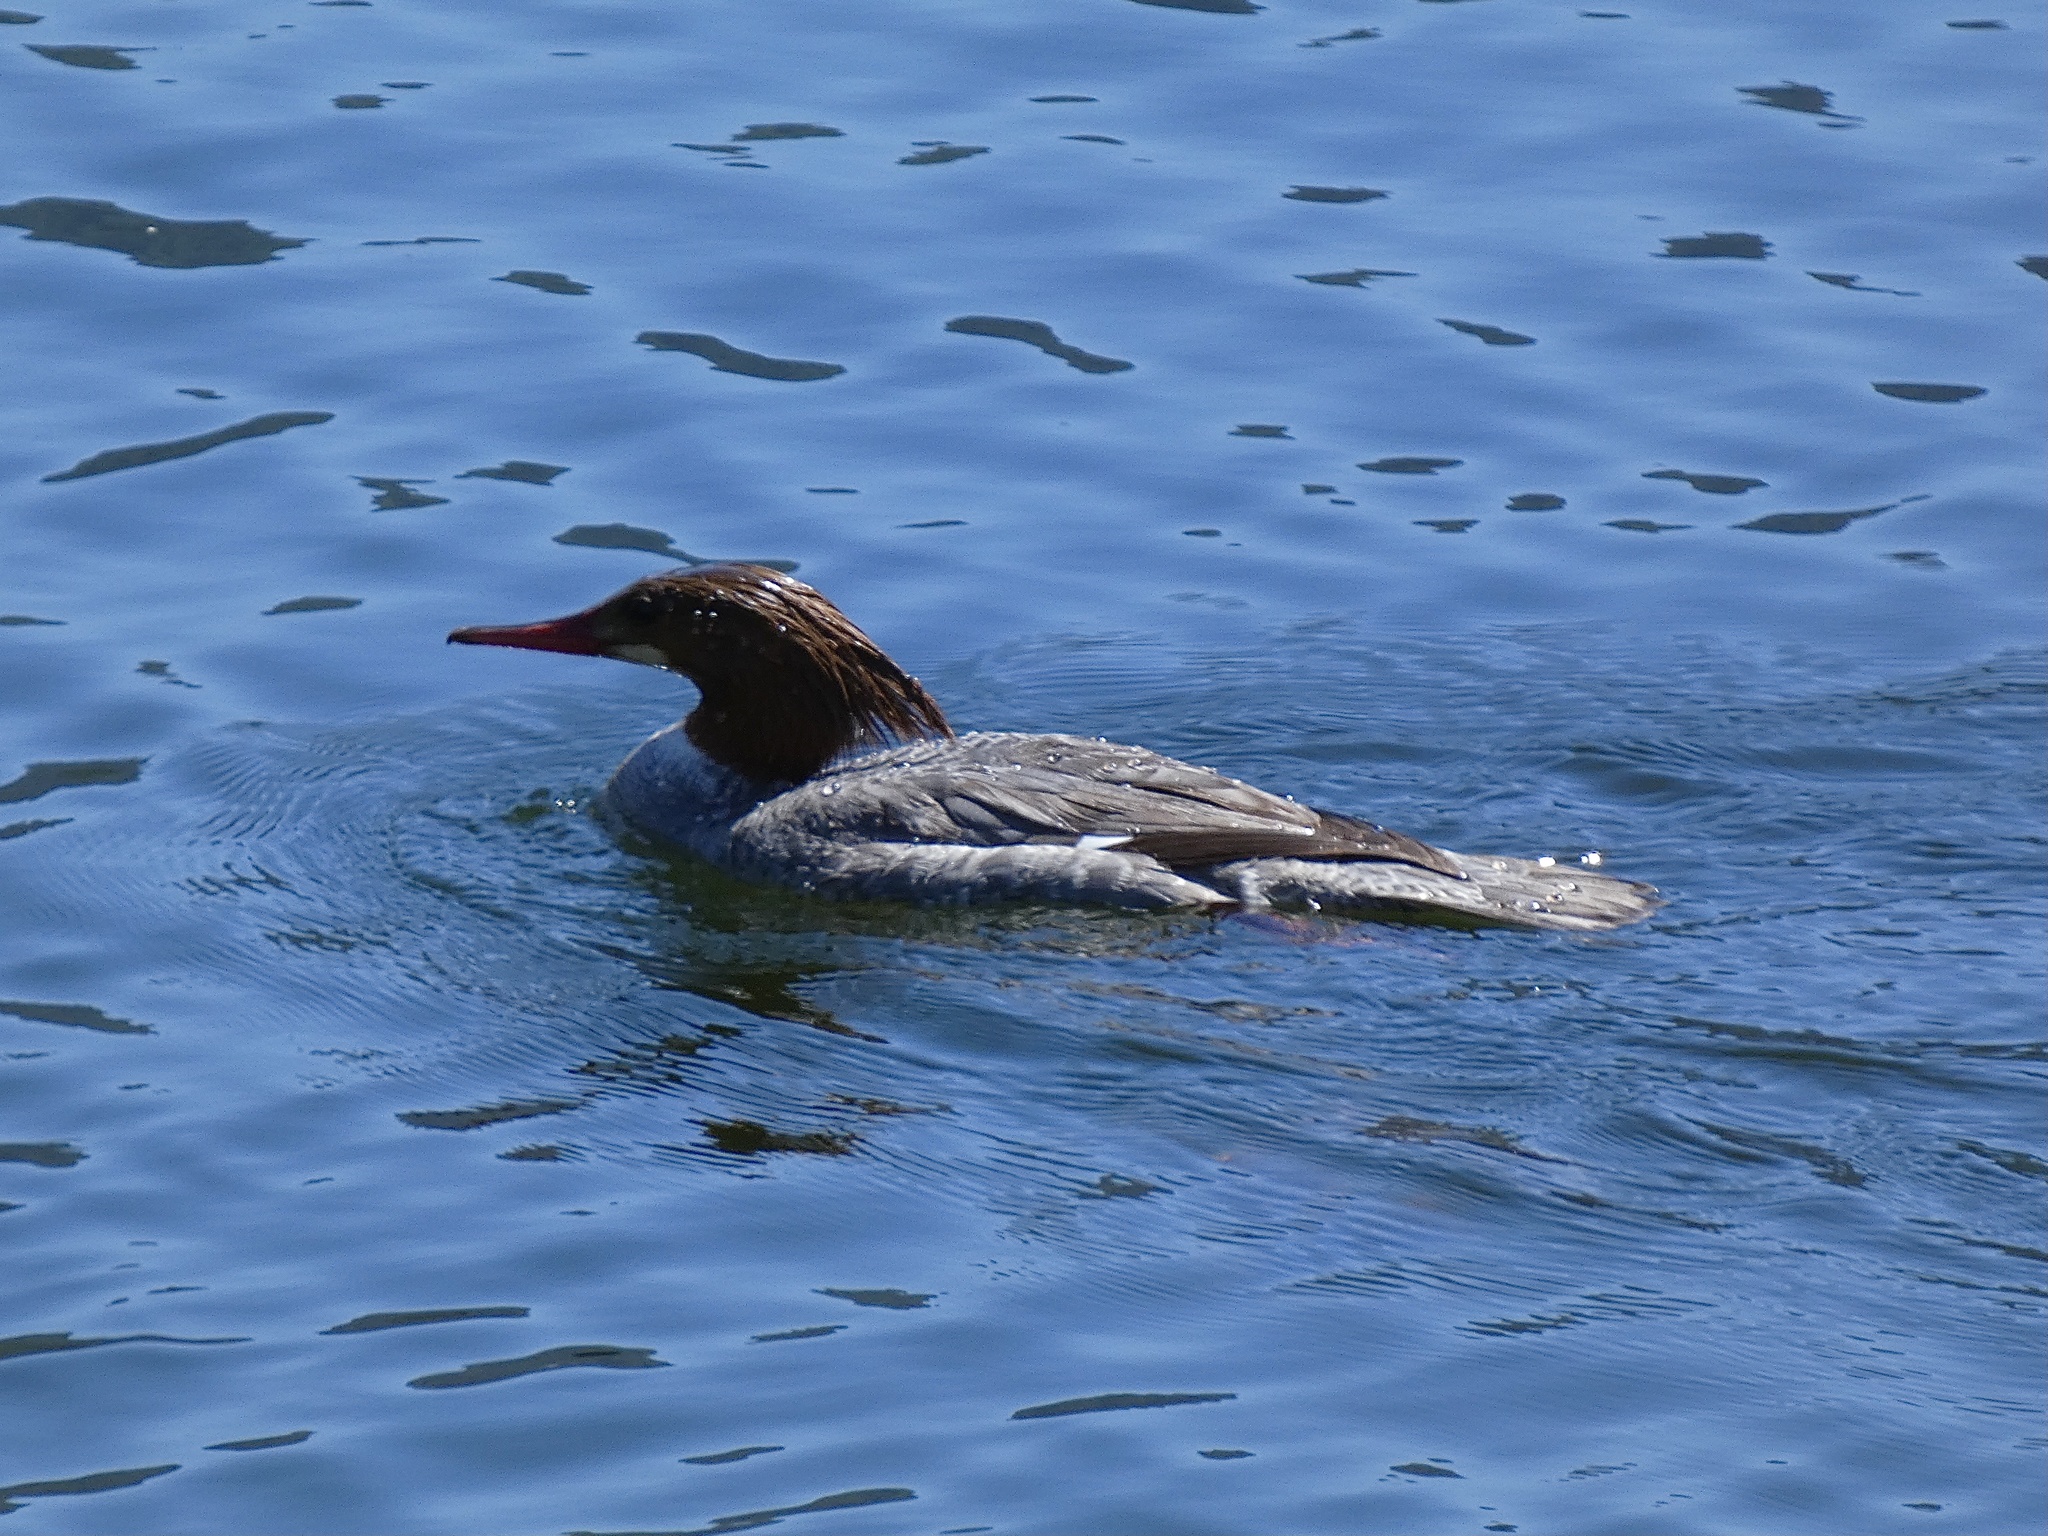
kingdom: Animalia
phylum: Chordata
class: Aves
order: Anseriformes
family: Anatidae
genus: Mergus
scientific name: Mergus merganser
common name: Common merganser
